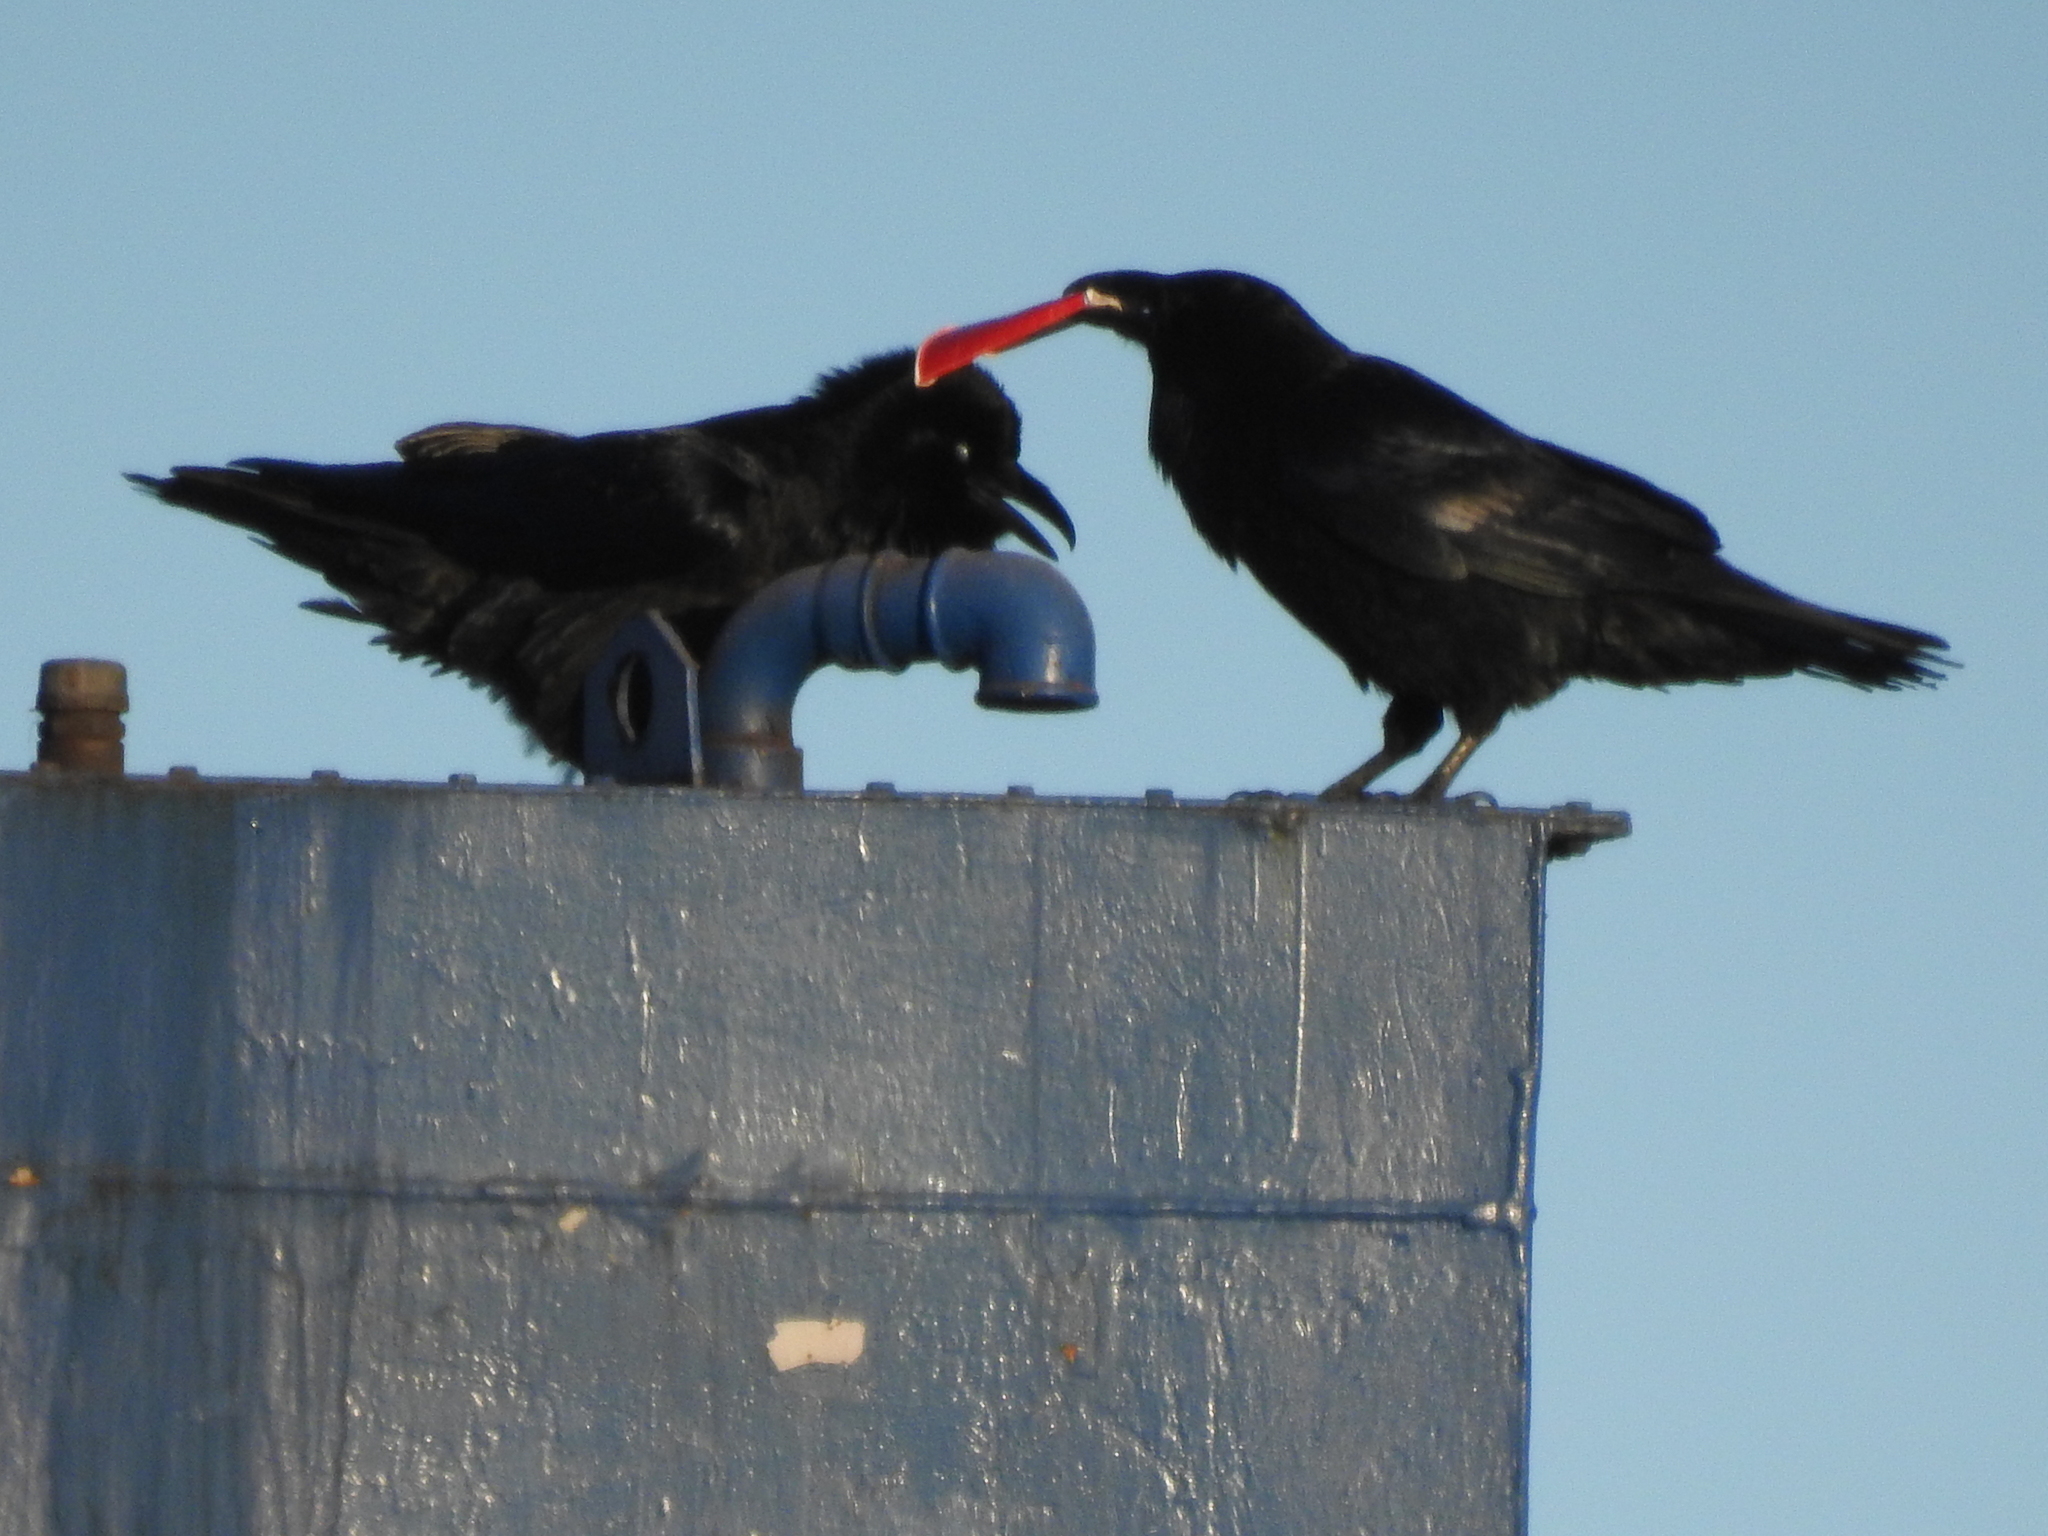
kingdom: Animalia
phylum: Chordata
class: Aves
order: Passeriformes
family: Corvidae
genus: Corvus
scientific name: Corvus corax
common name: Common raven
